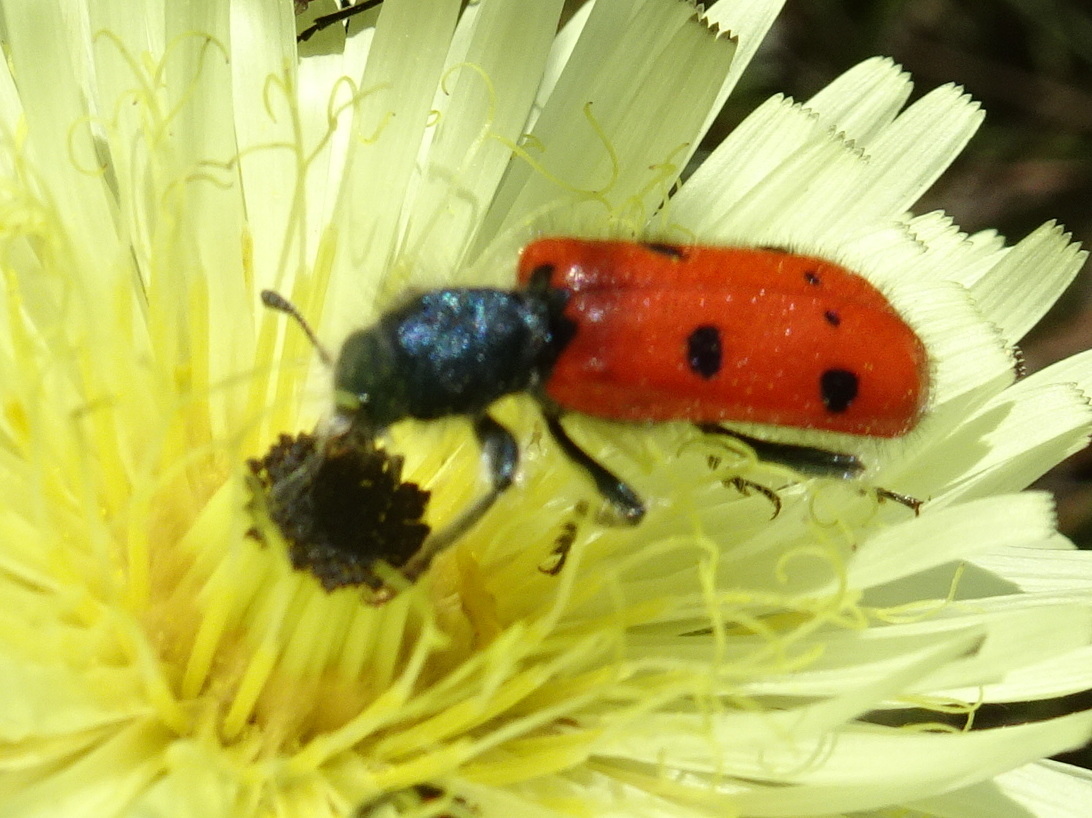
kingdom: Animalia
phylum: Arthropoda
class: Insecta
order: Coleoptera
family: Cleridae
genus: Trichodes
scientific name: Trichodes octopunctatus
